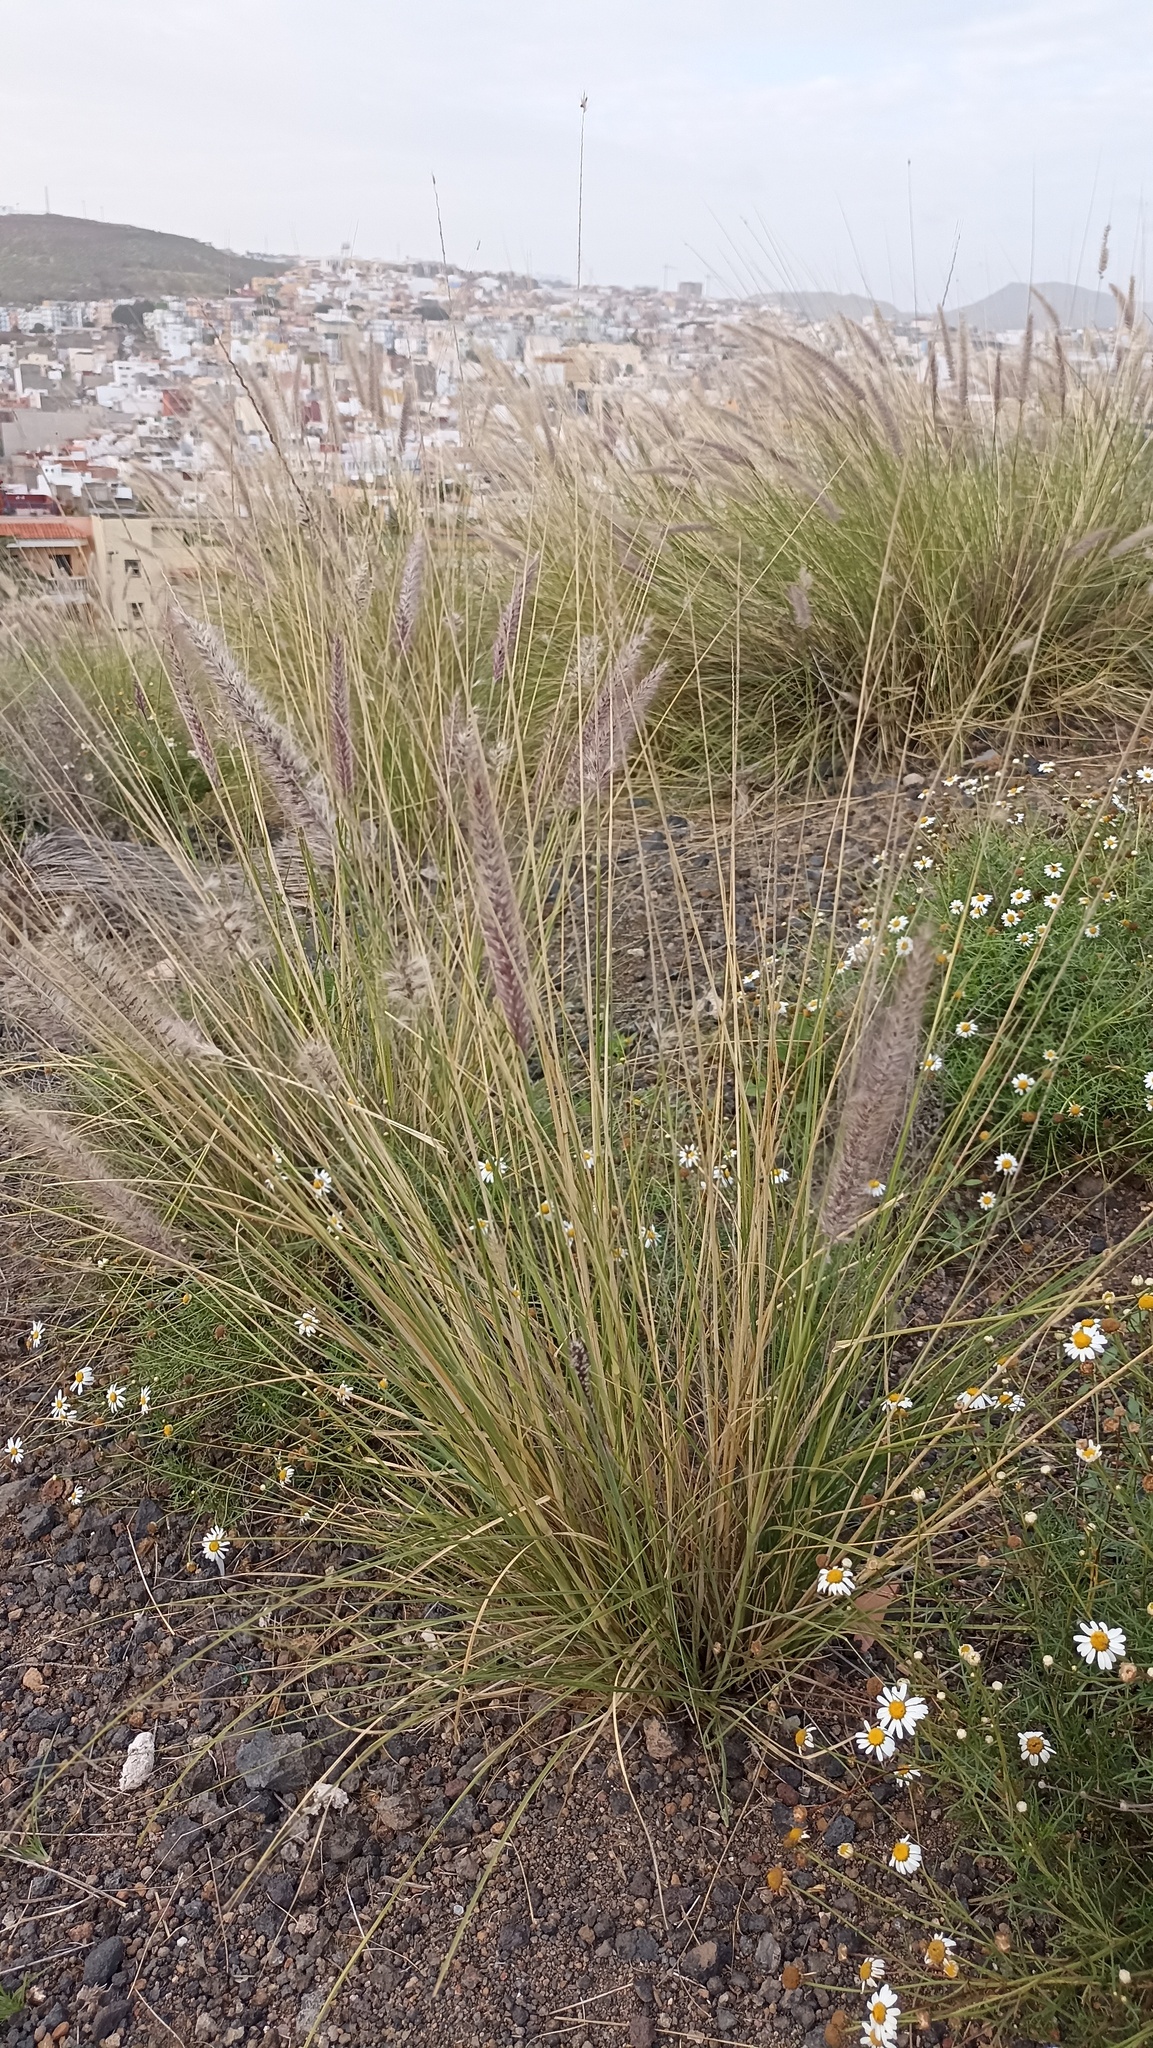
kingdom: Plantae
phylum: Tracheophyta
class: Liliopsida
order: Poales
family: Poaceae
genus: Cenchrus
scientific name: Cenchrus setaceus
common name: Crimson fountaingrass
